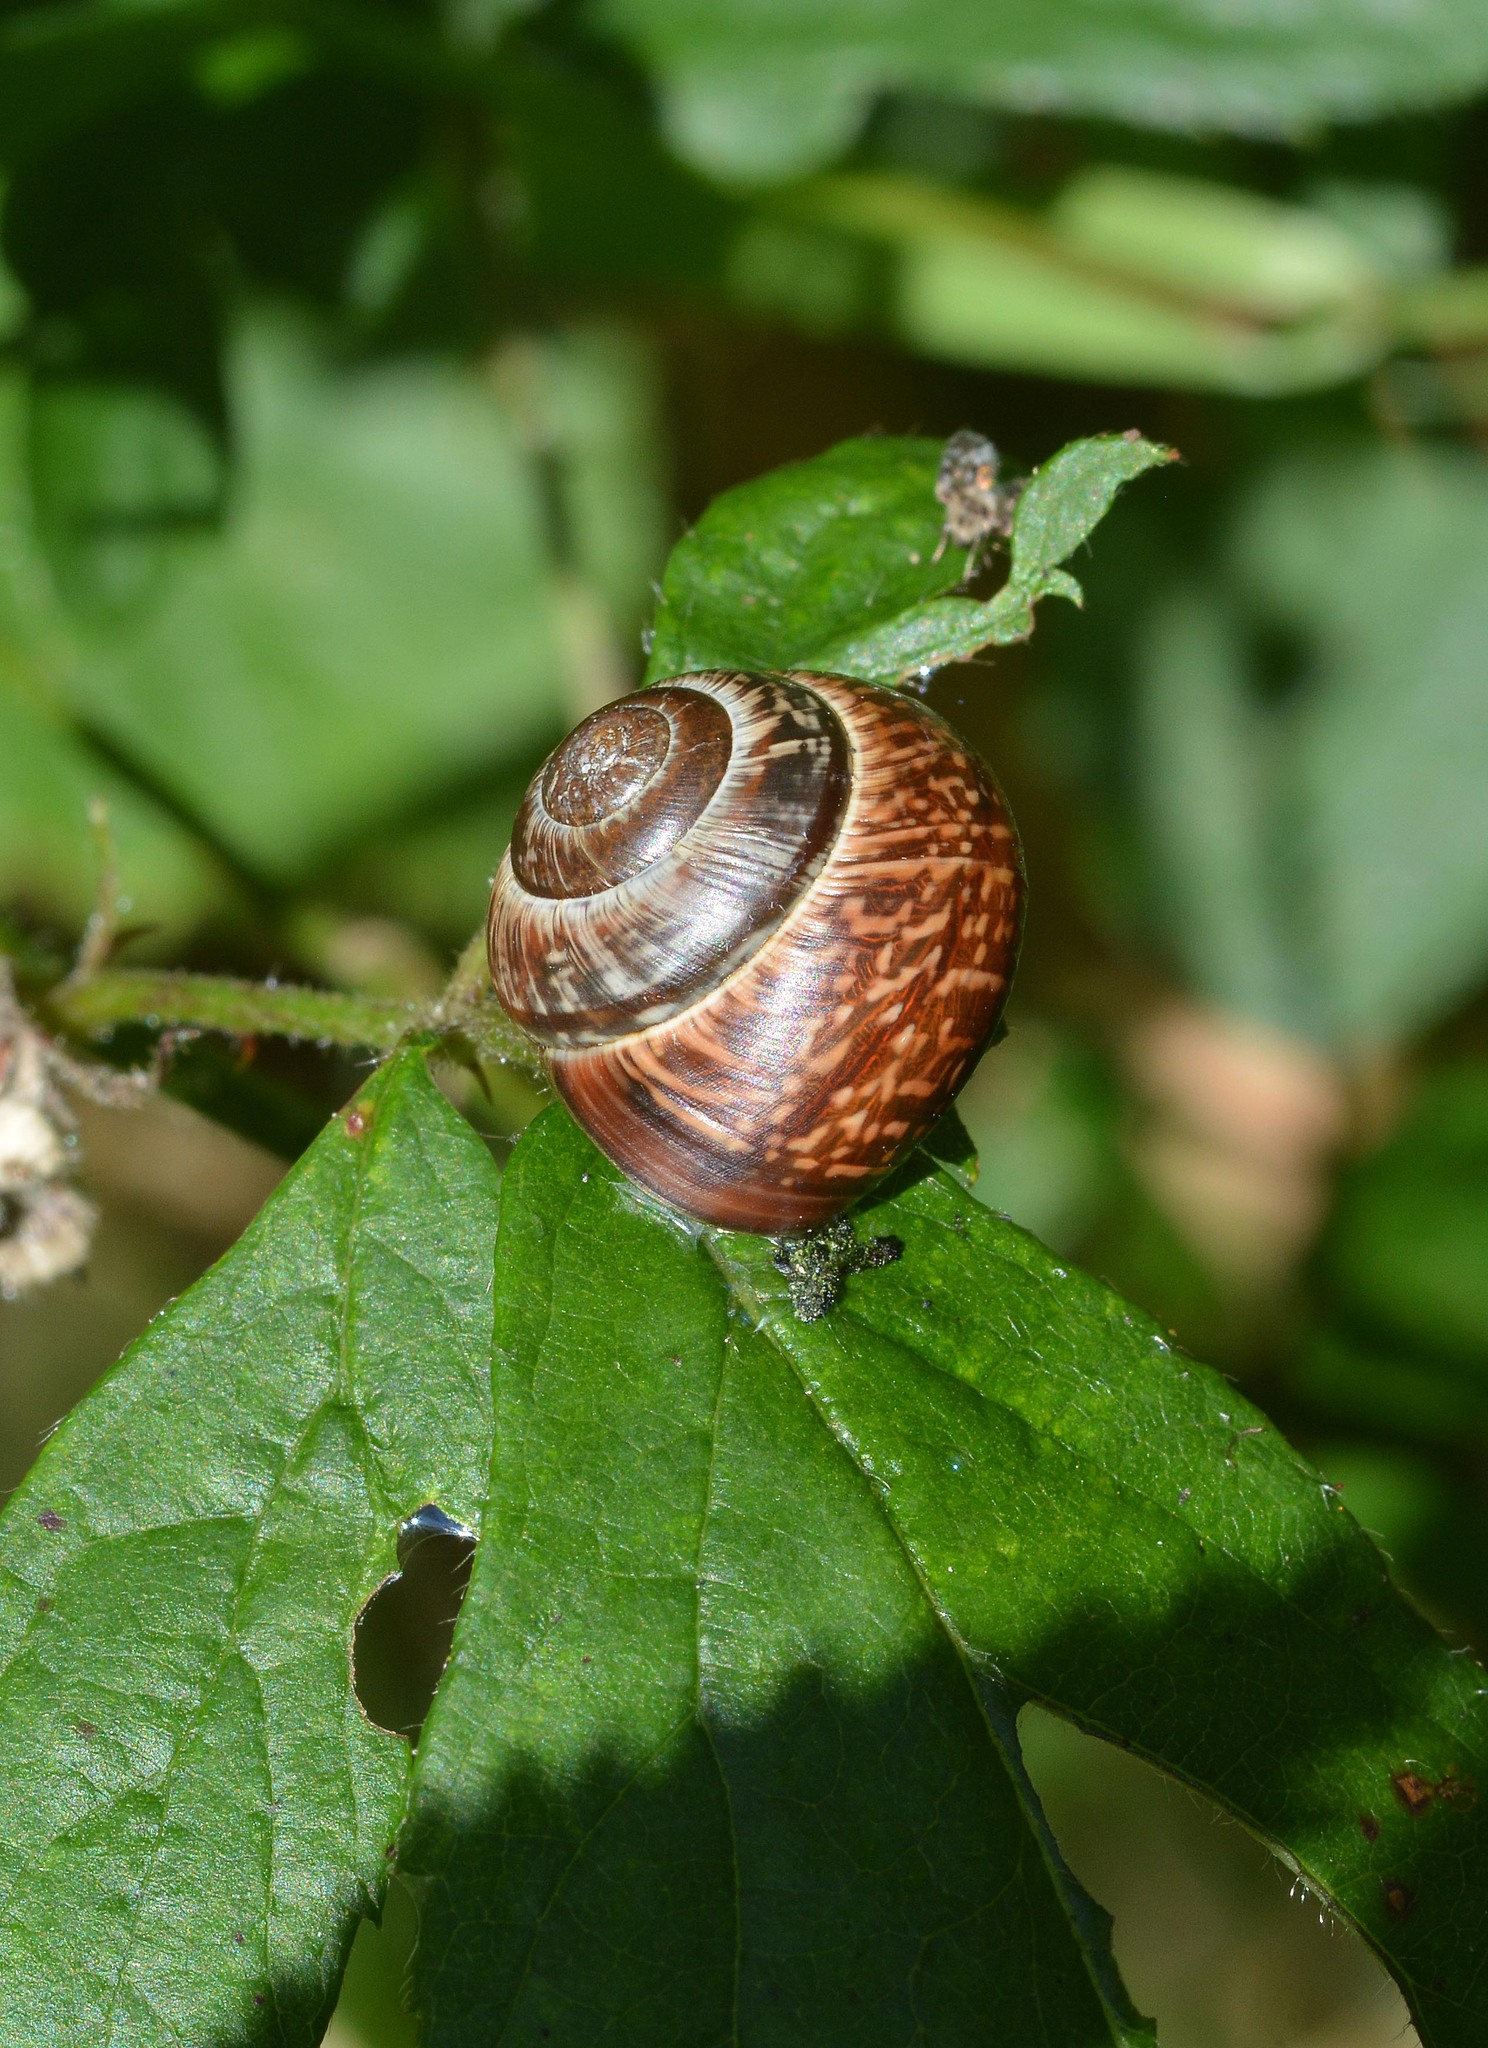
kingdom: Animalia
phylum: Mollusca
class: Gastropoda
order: Stylommatophora
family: Helicidae
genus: Arianta
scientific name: Arianta arbustorum
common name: Copse snail
